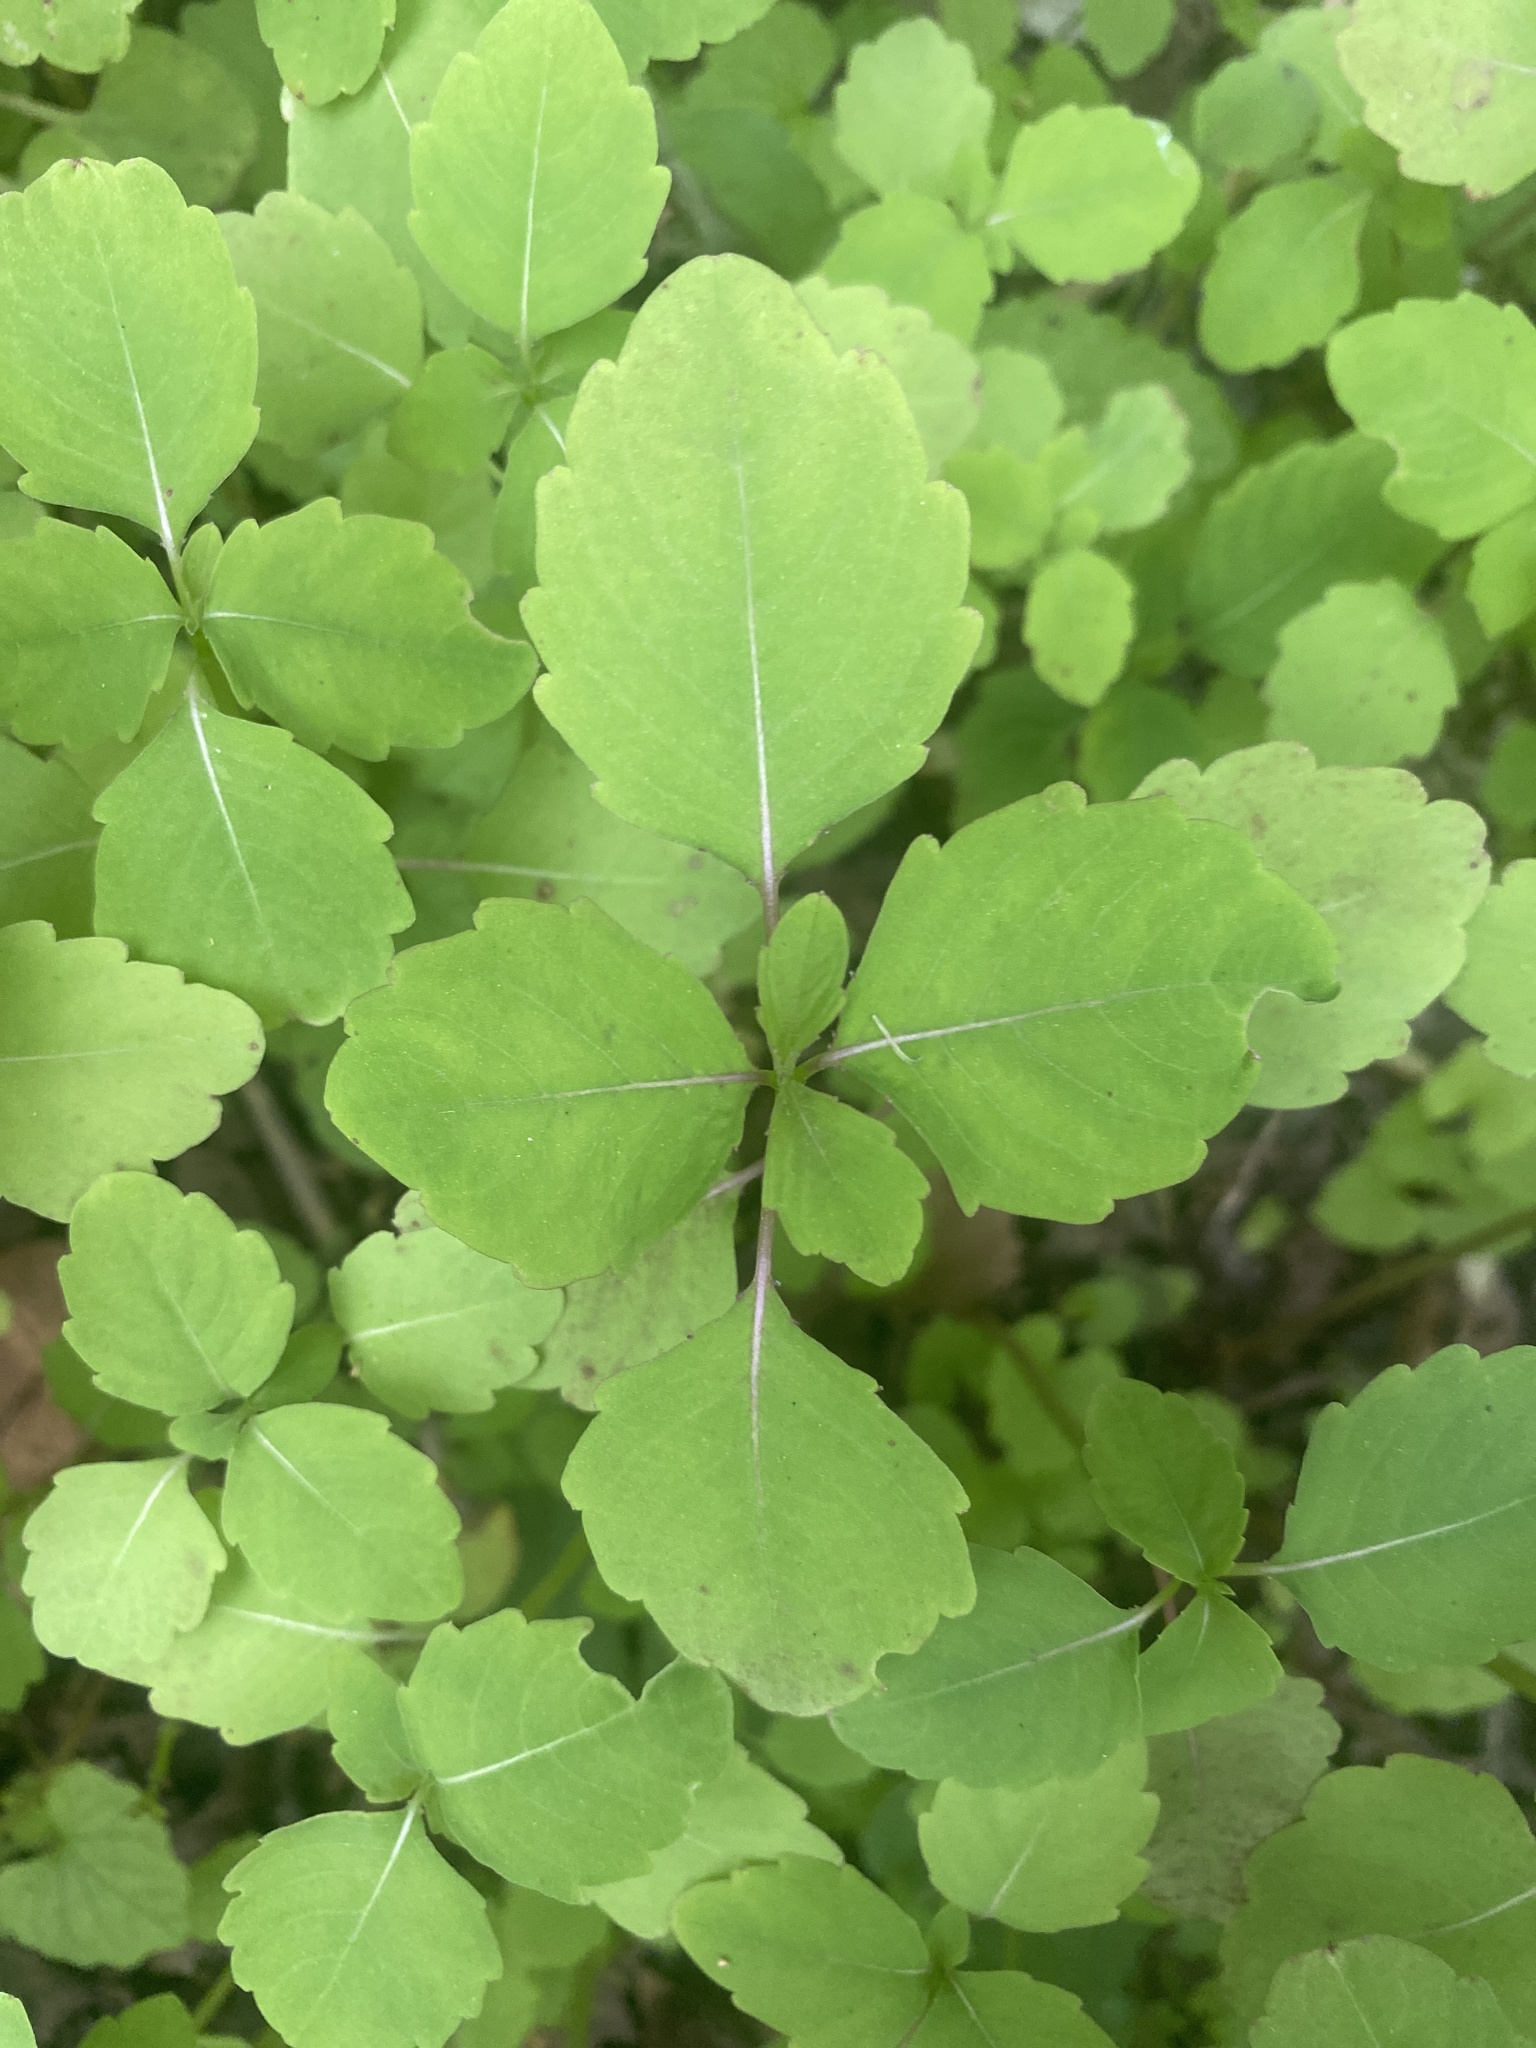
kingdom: Plantae
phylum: Tracheophyta
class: Magnoliopsida
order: Ericales
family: Balsaminaceae
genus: Impatiens
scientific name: Impatiens capensis
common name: Orange balsam
